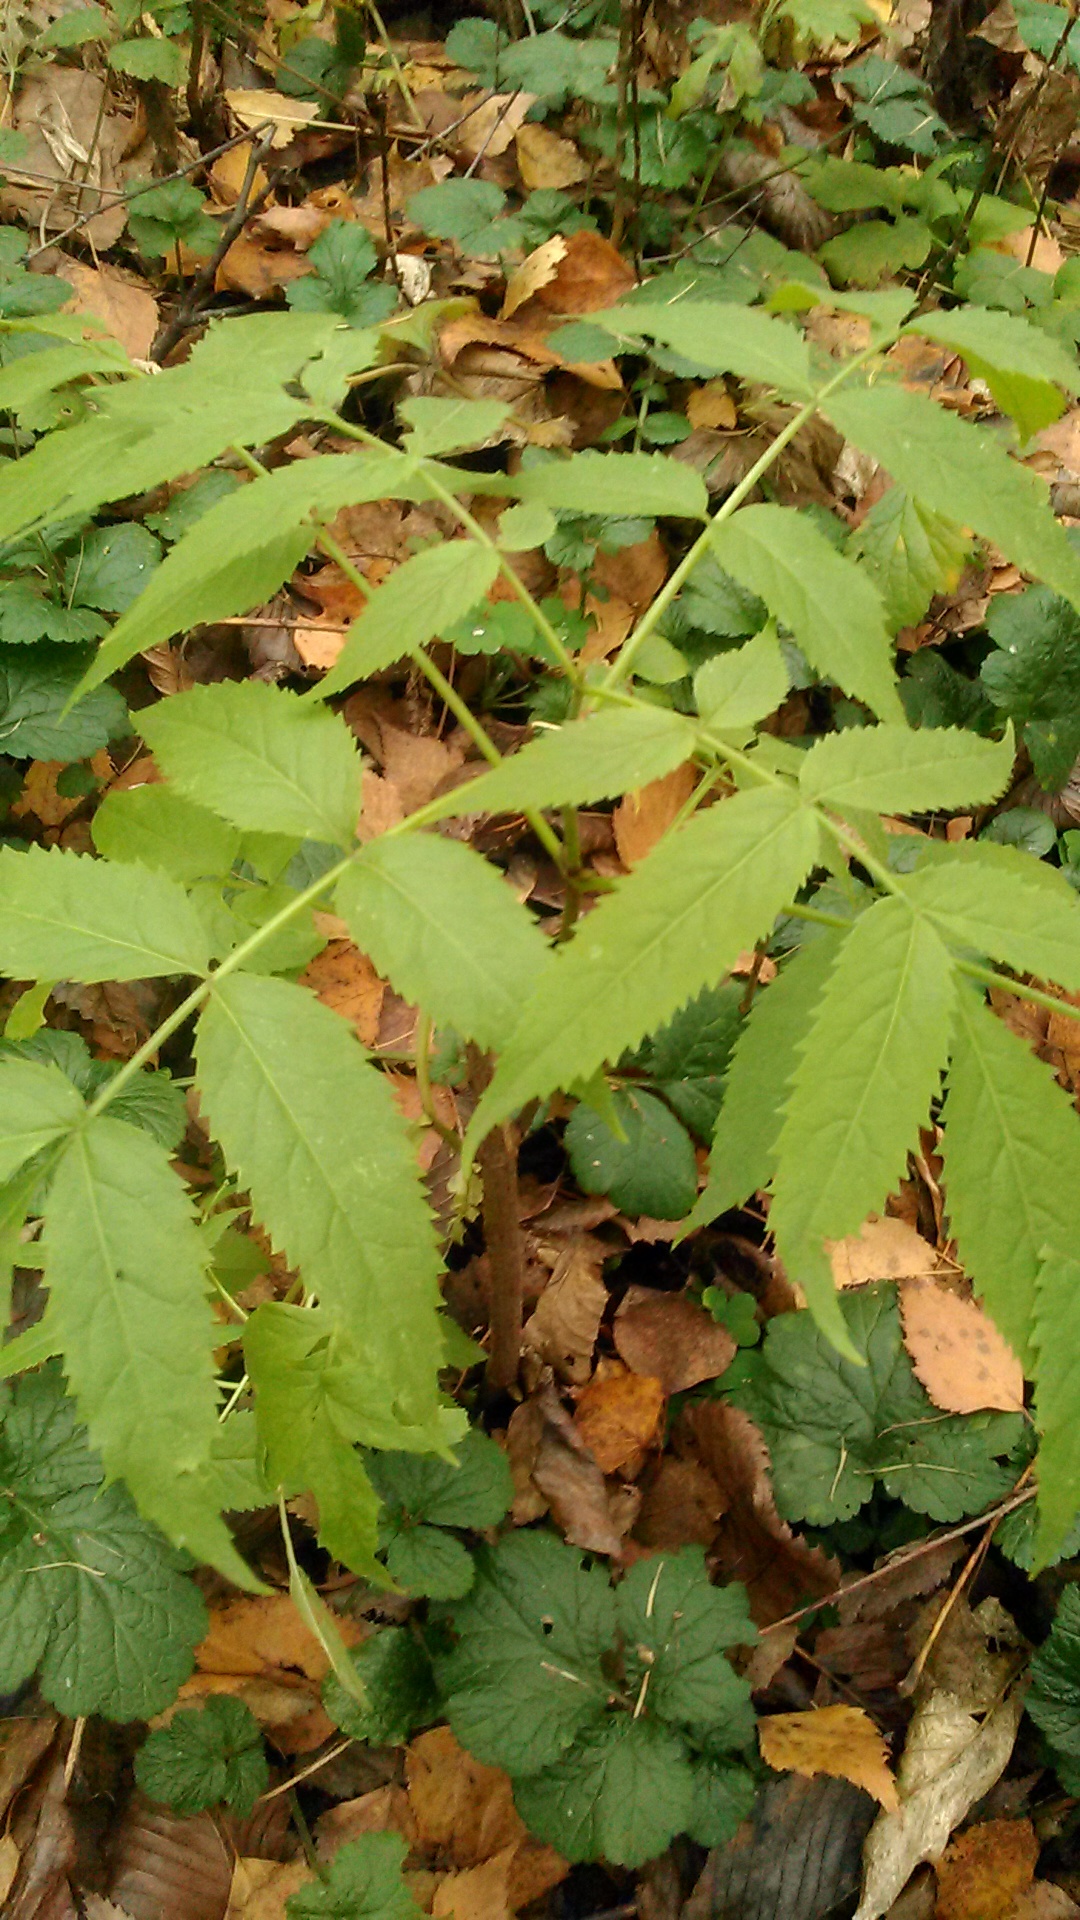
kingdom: Plantae
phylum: Tracheophyta
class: Magnoliopsida
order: Dipsacales
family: Viburnaceae
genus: Sambucus
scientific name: Sambucus racemosa
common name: Red-berried elder
